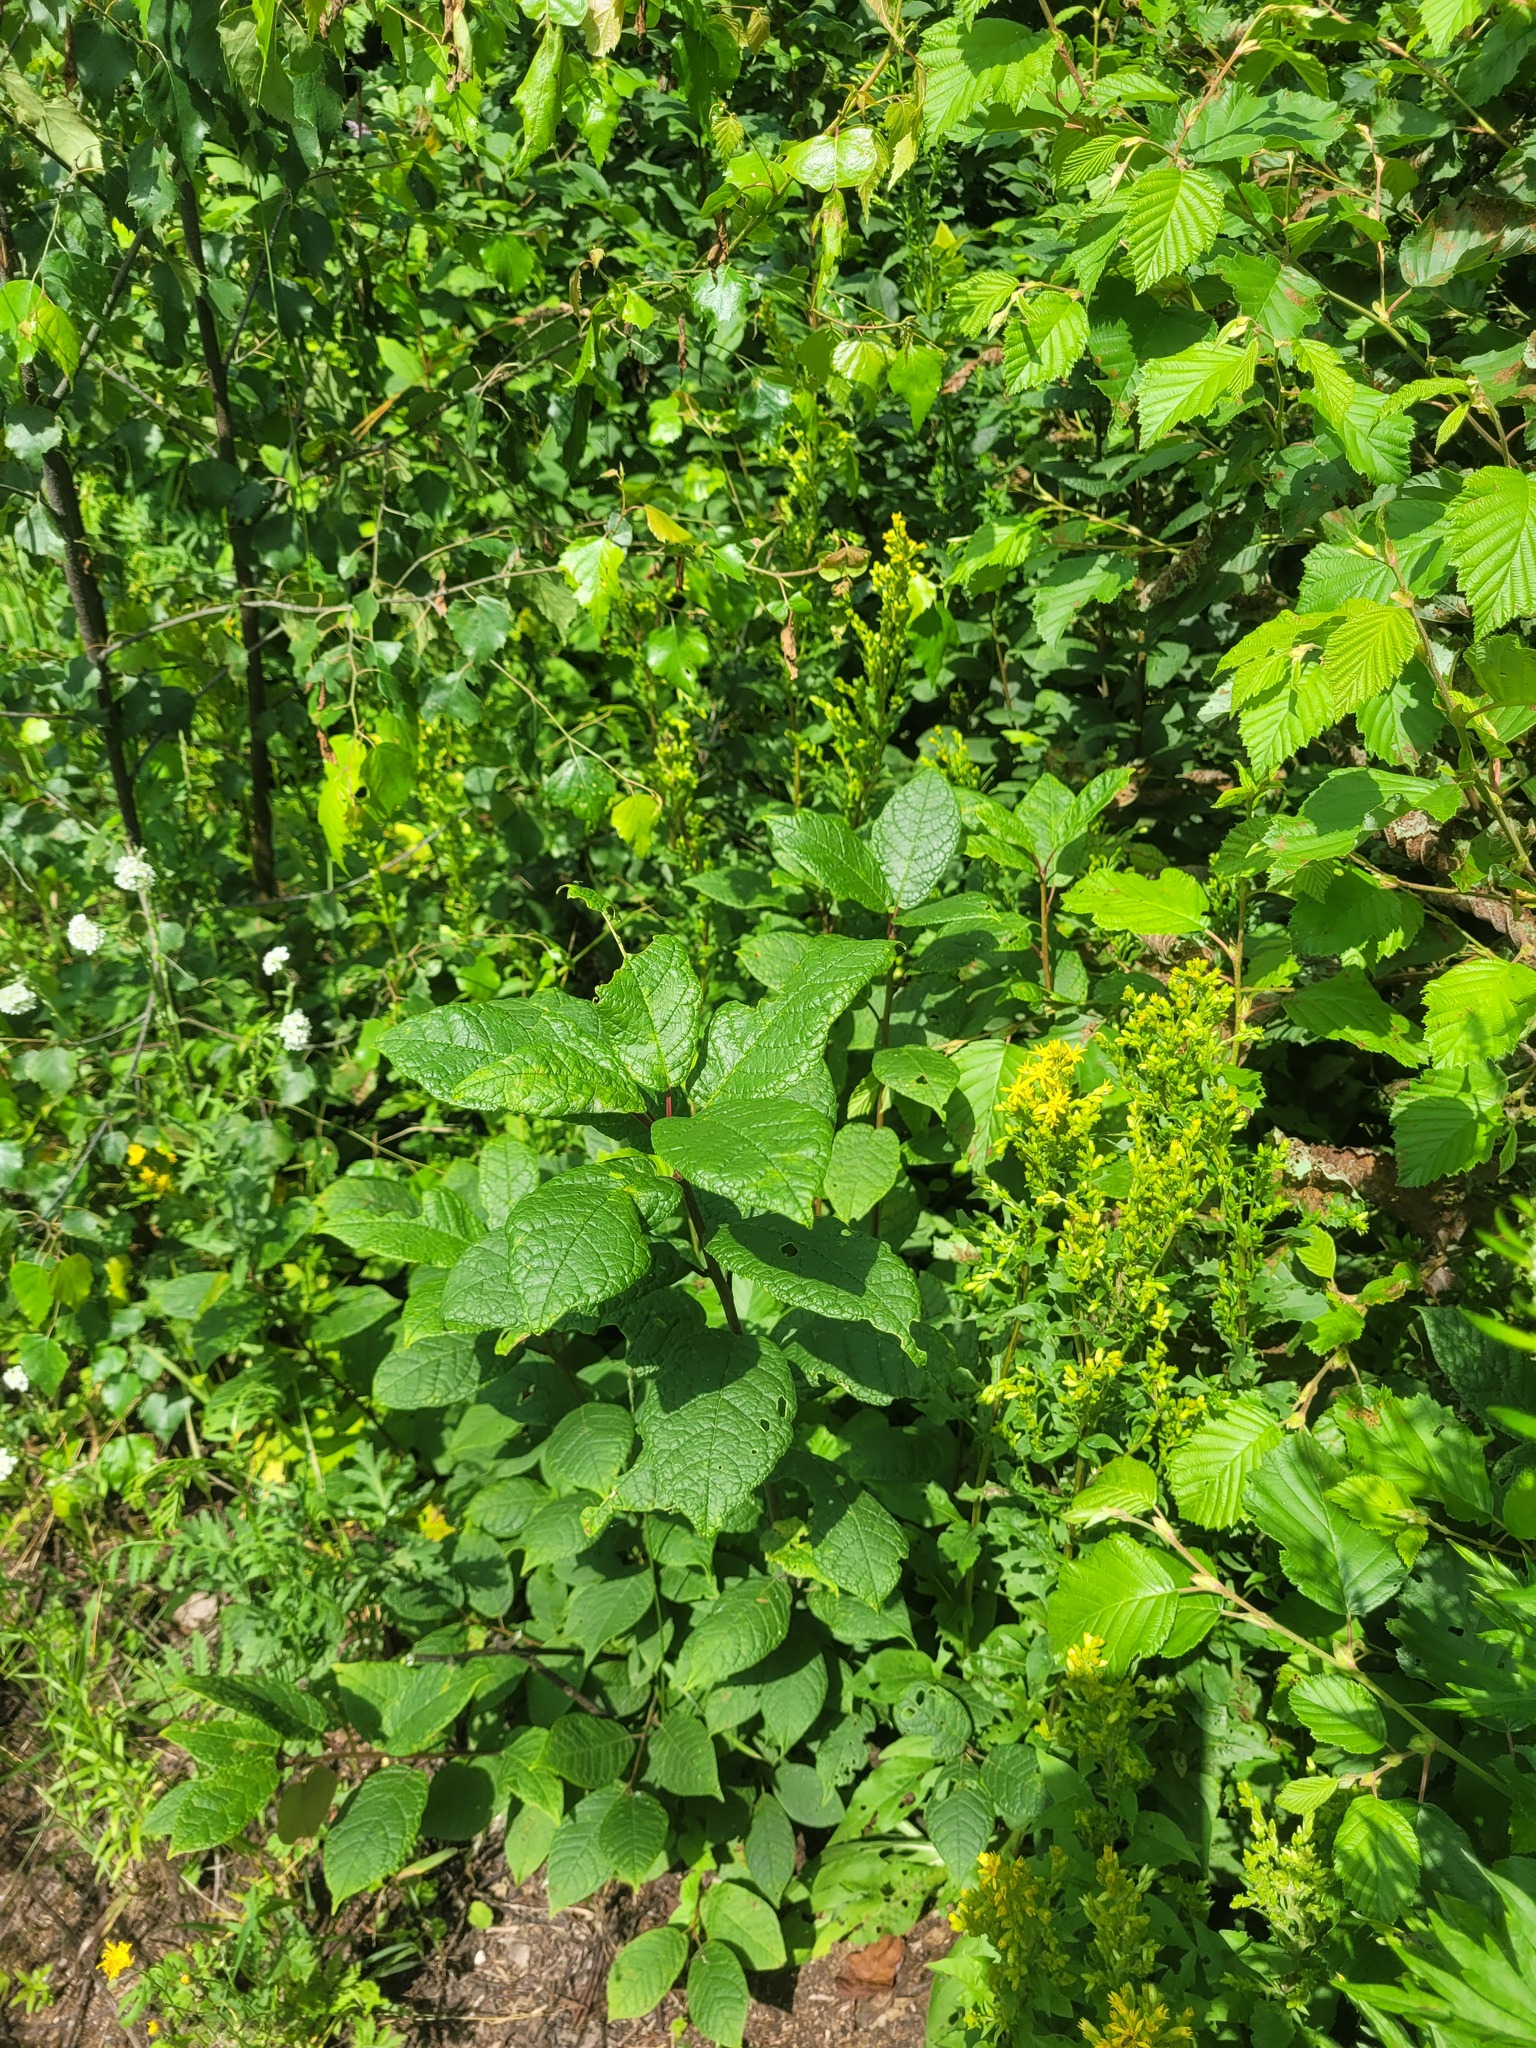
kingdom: Plantae
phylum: Tracheophyta
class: Magnoliopsida
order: Rosales
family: Rosaceae
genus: Prunus
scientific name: Prunus padus
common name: Bird cherry
